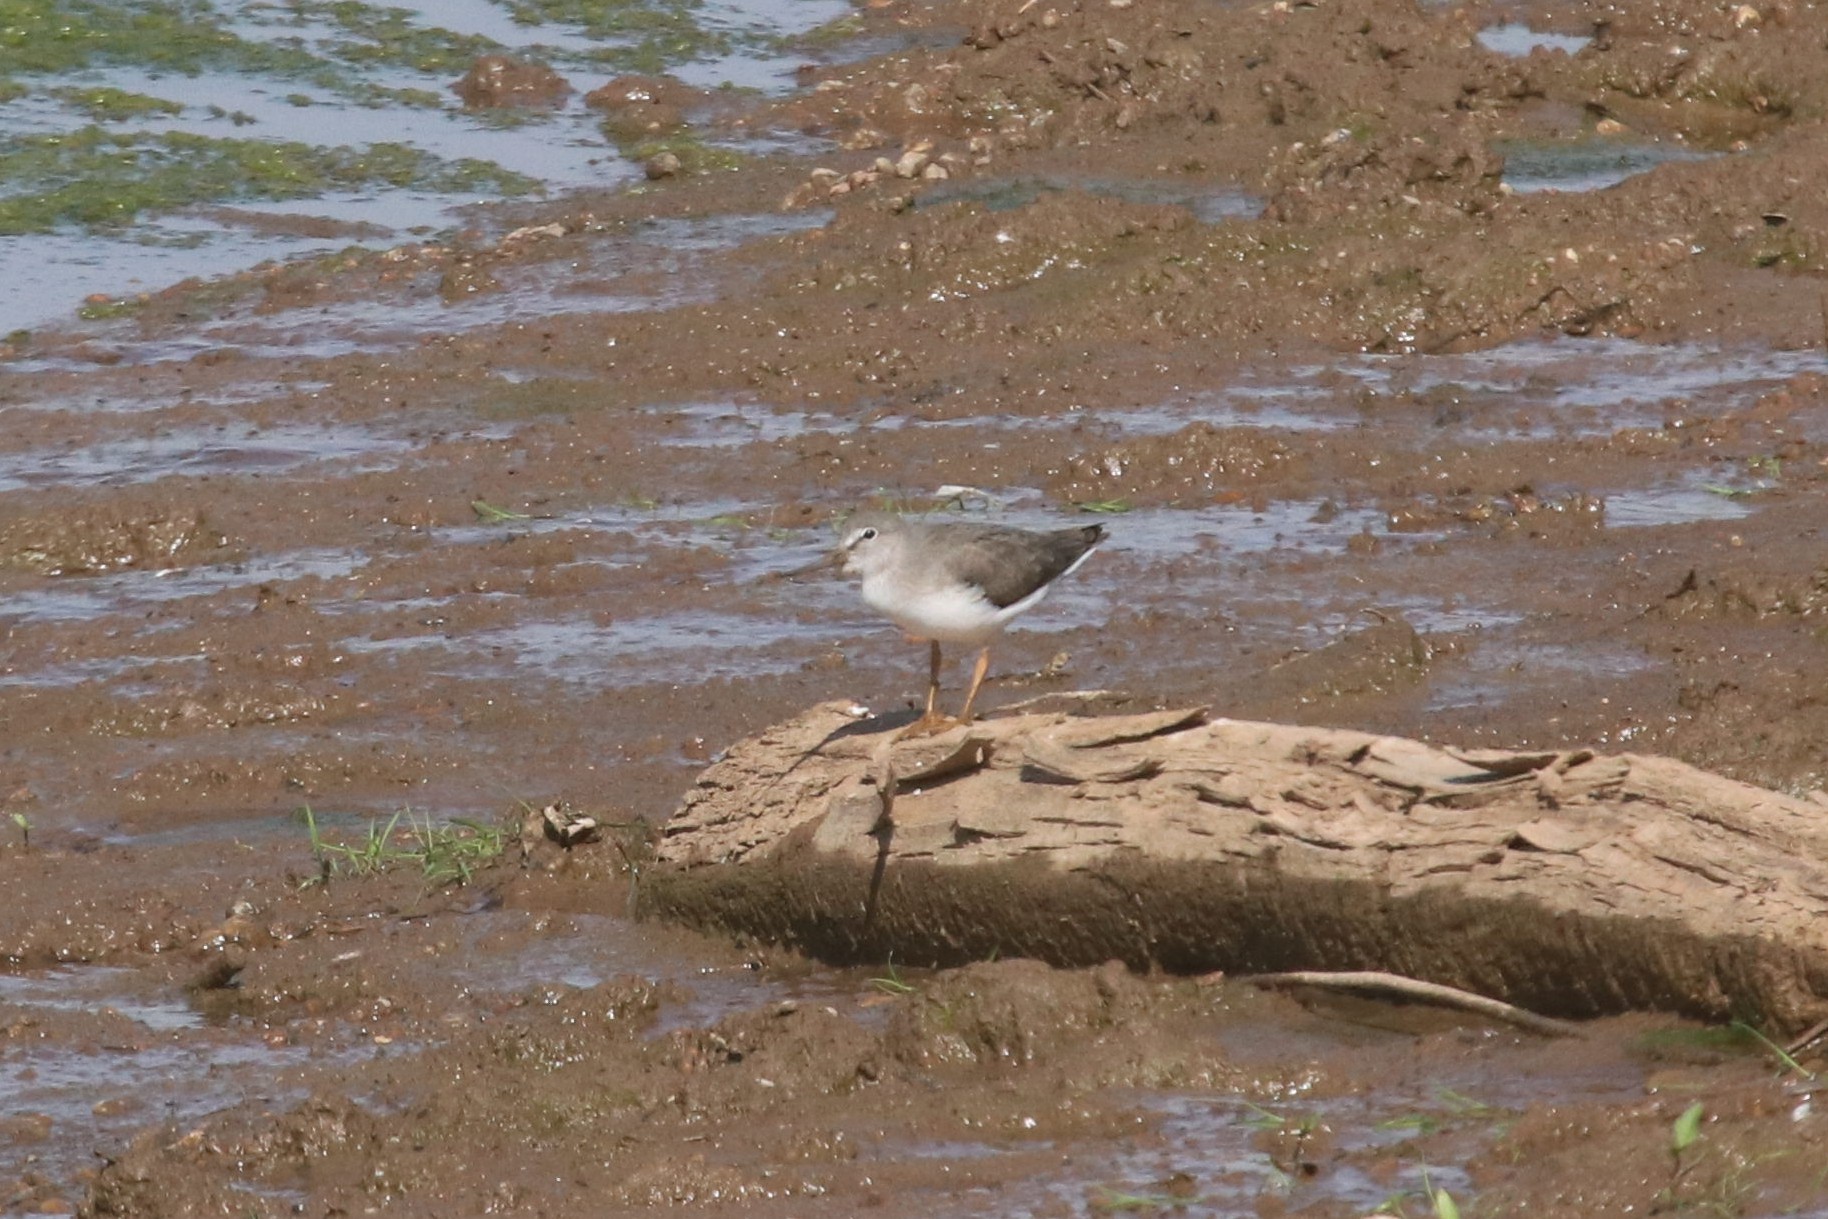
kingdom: Animalia
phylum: Chordata
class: Aves
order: Charadriiformes
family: Scolopacidae
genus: Xenus
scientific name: Xenus cinereus
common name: Terek sandpiper
